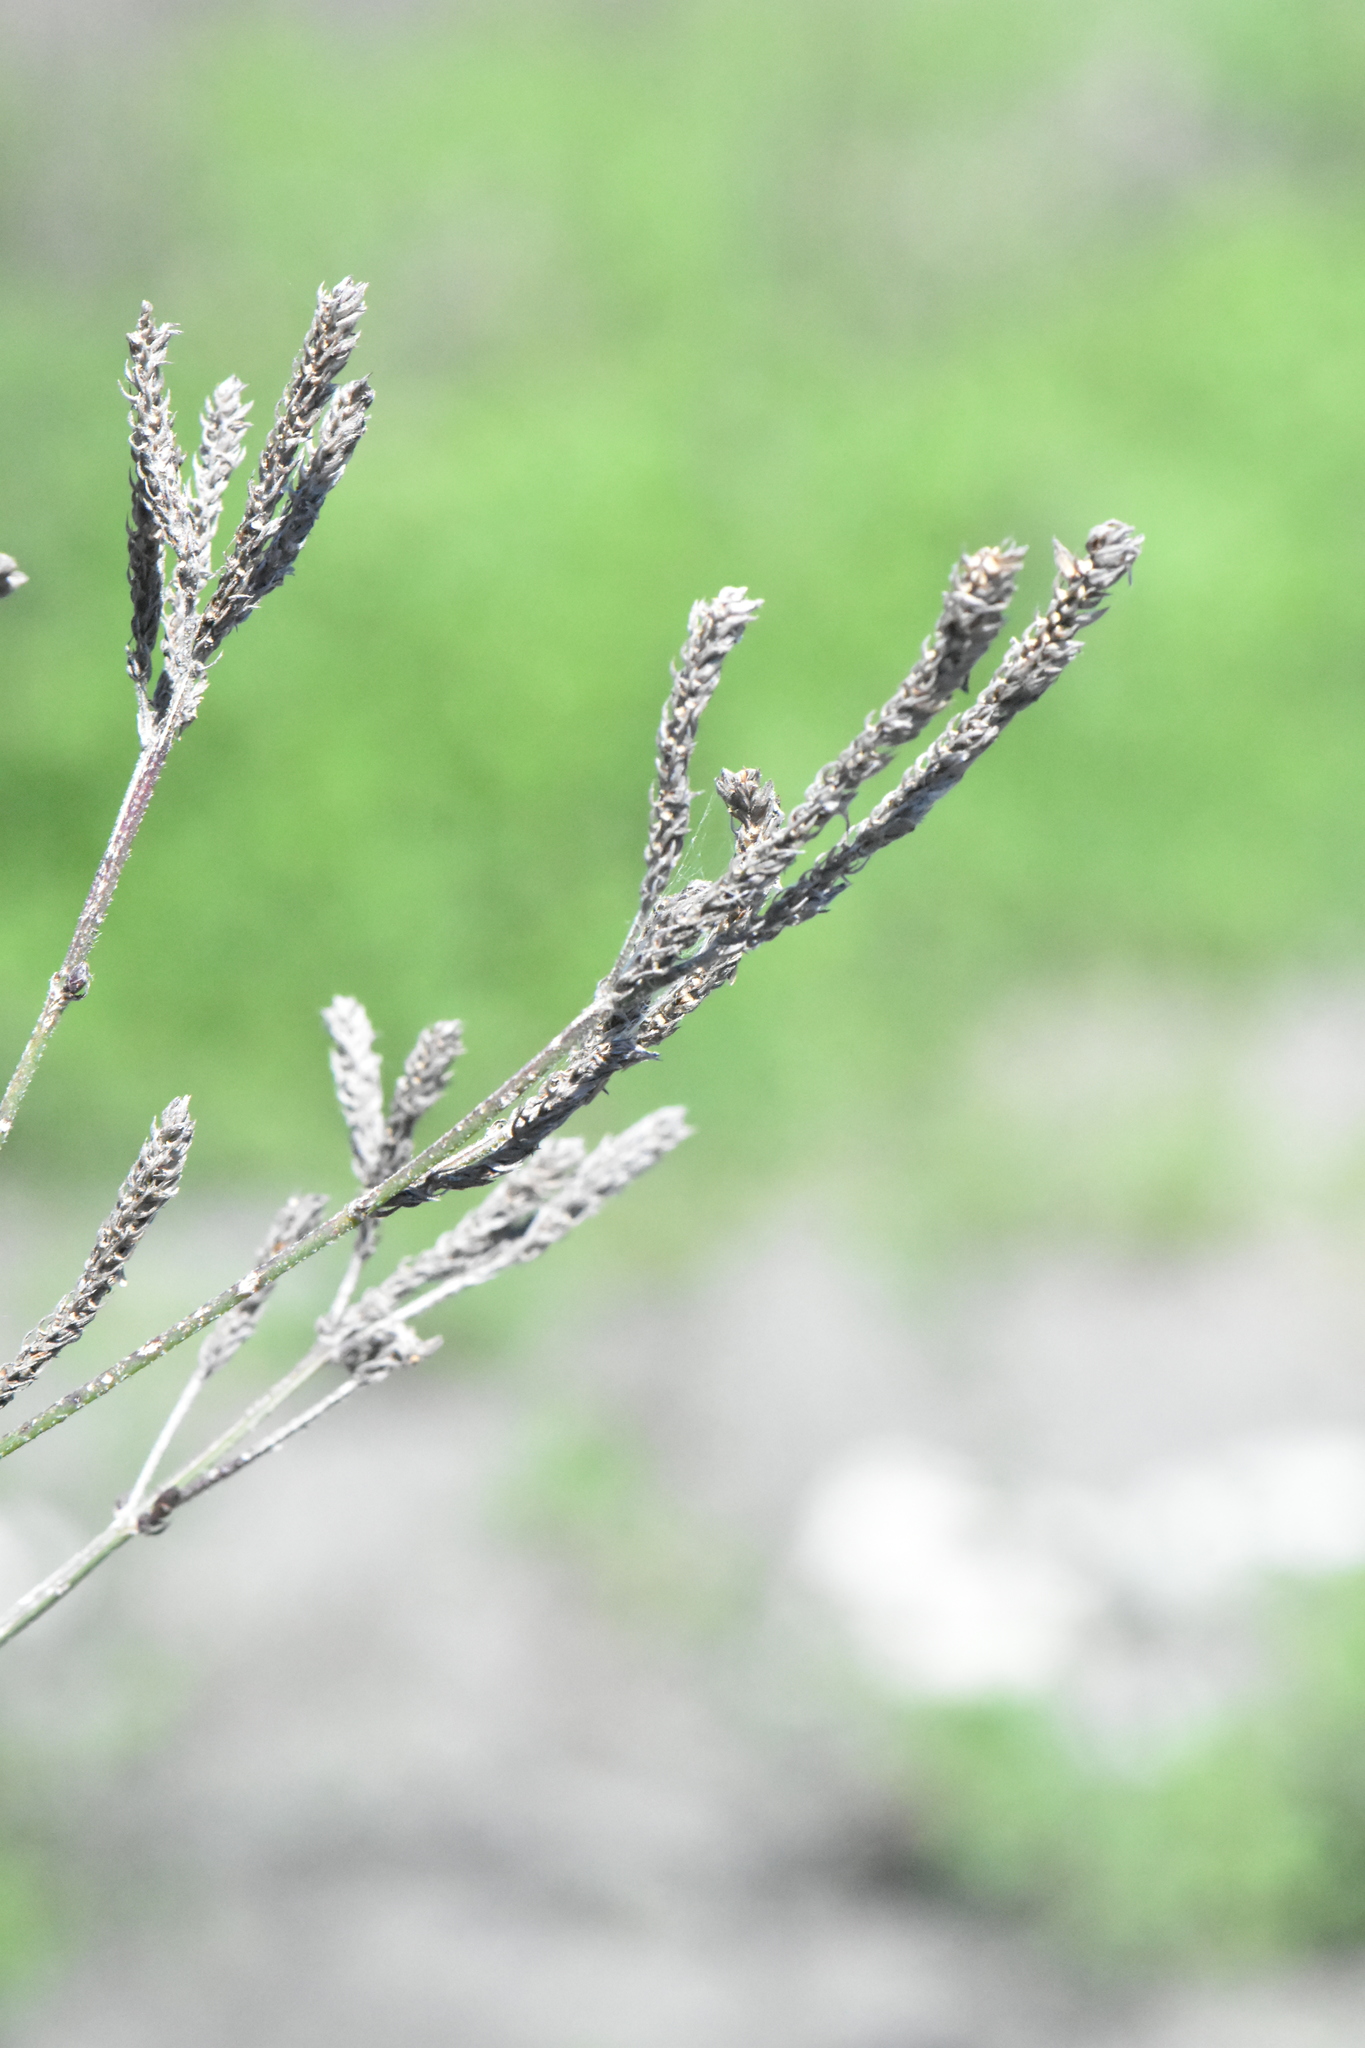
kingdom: Plantae
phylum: Tracheophyta
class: Magnoliopsida
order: Lamiales
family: Verbenaceae
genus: Verbena
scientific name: Verbena brasiliensis
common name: Brazilian vervain
